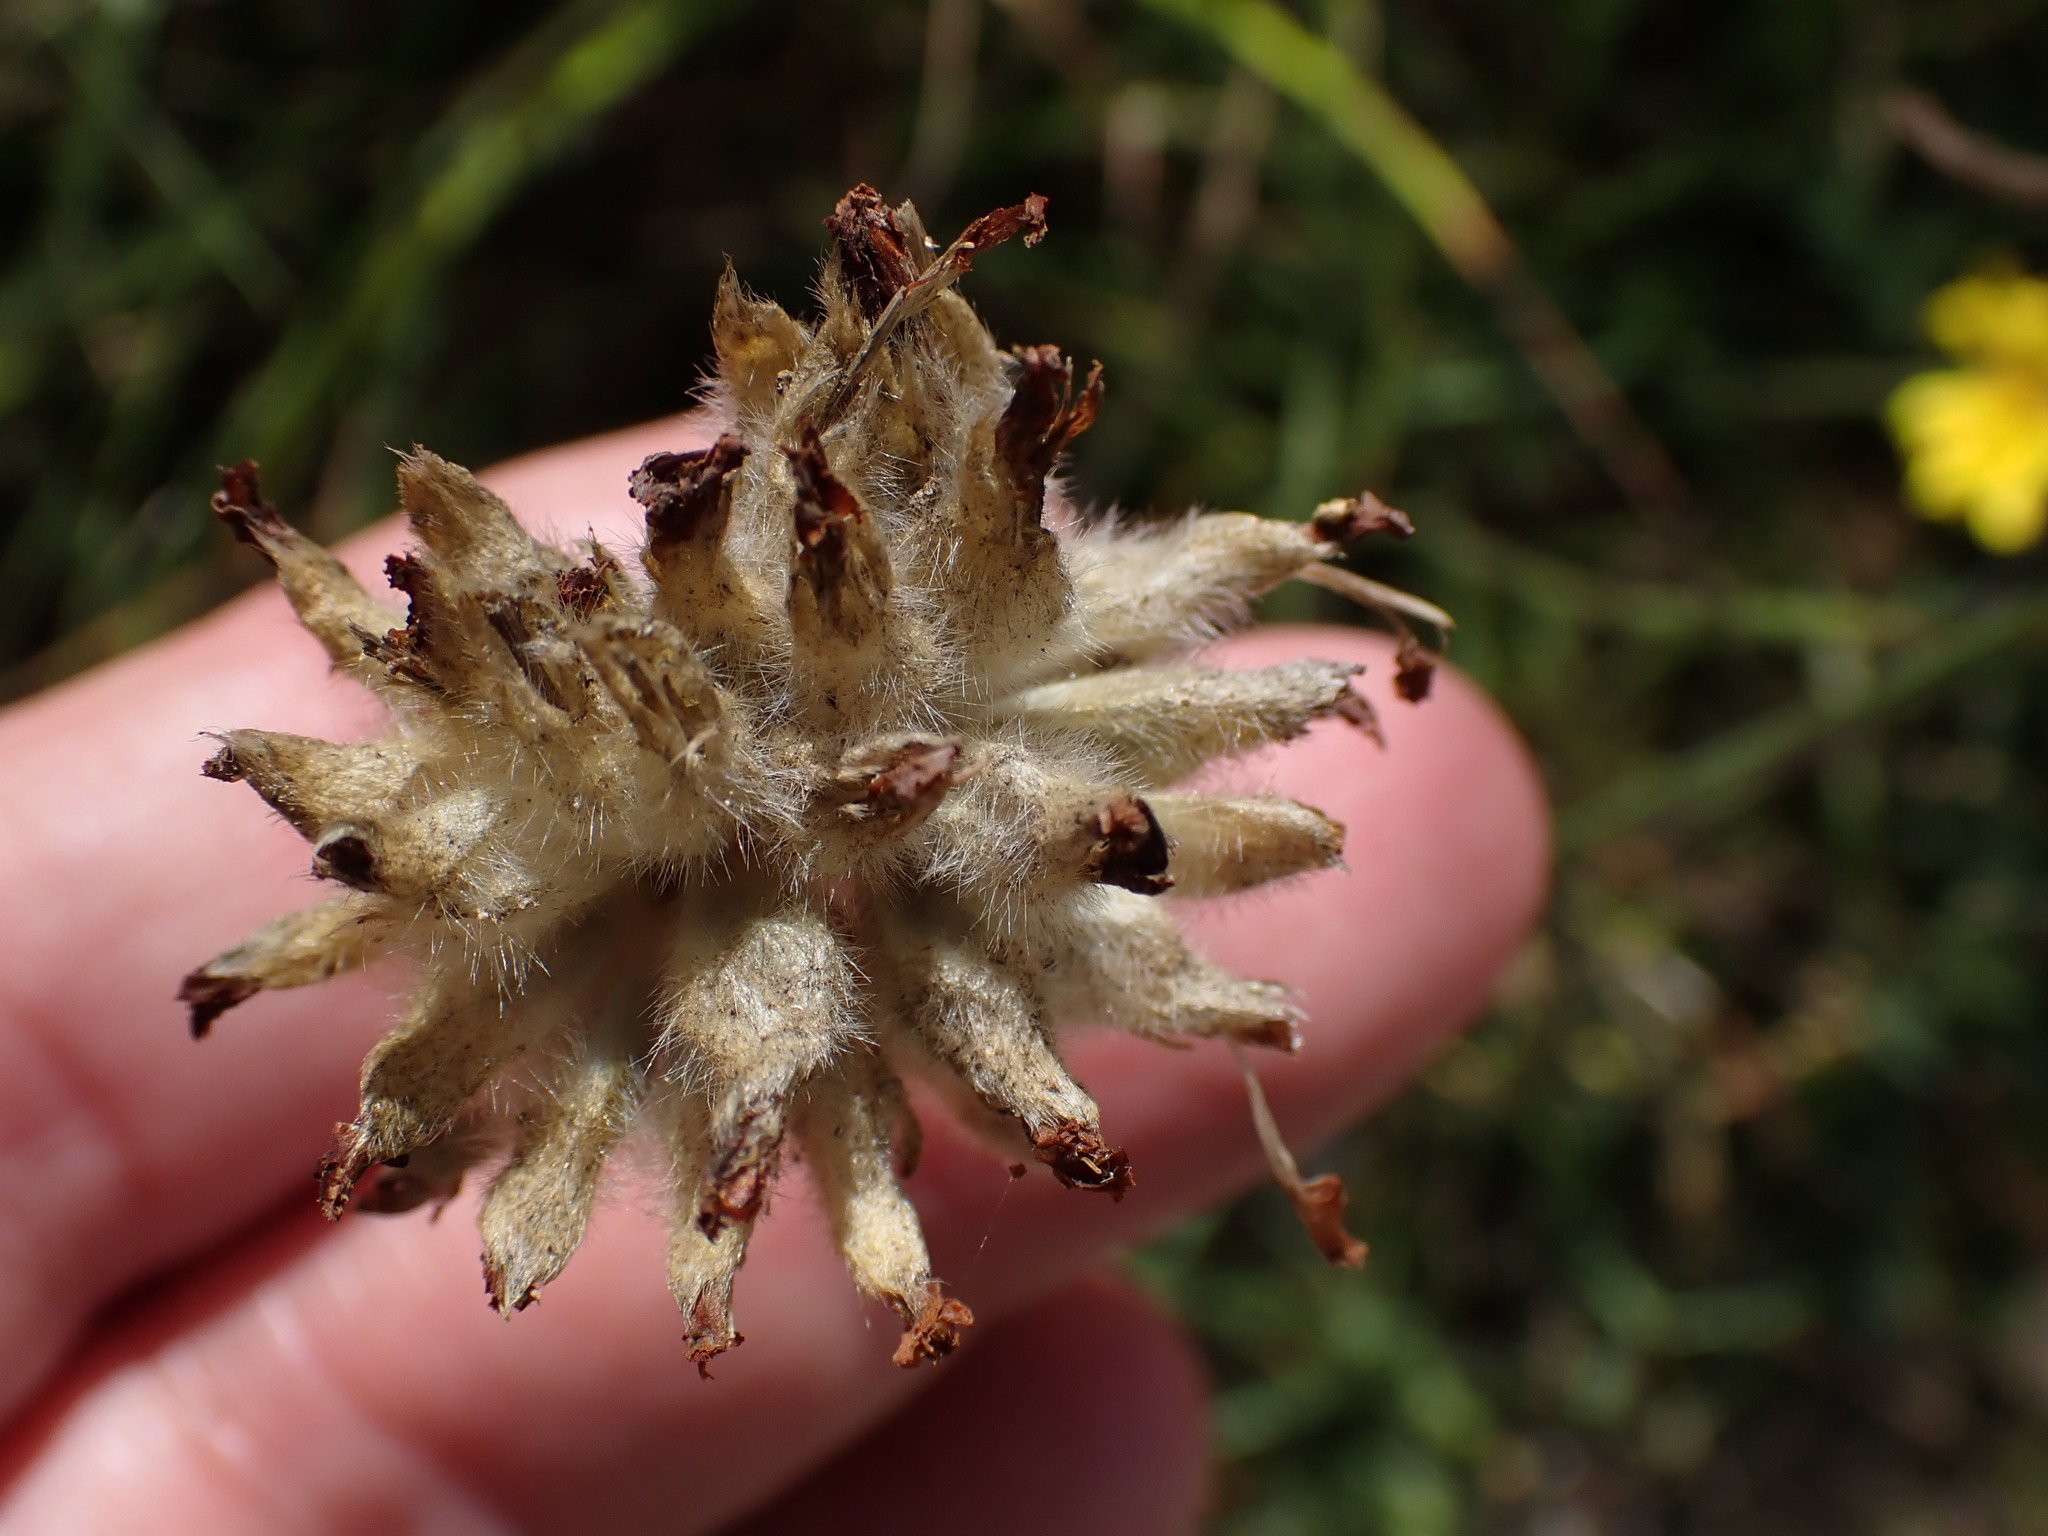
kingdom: Plantae
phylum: Tracheophyta
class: Magnoliopsida
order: Fabales
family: Fabaceae
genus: Anthyllis
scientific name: Anthyllis vulneraria
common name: Kidney vetch
